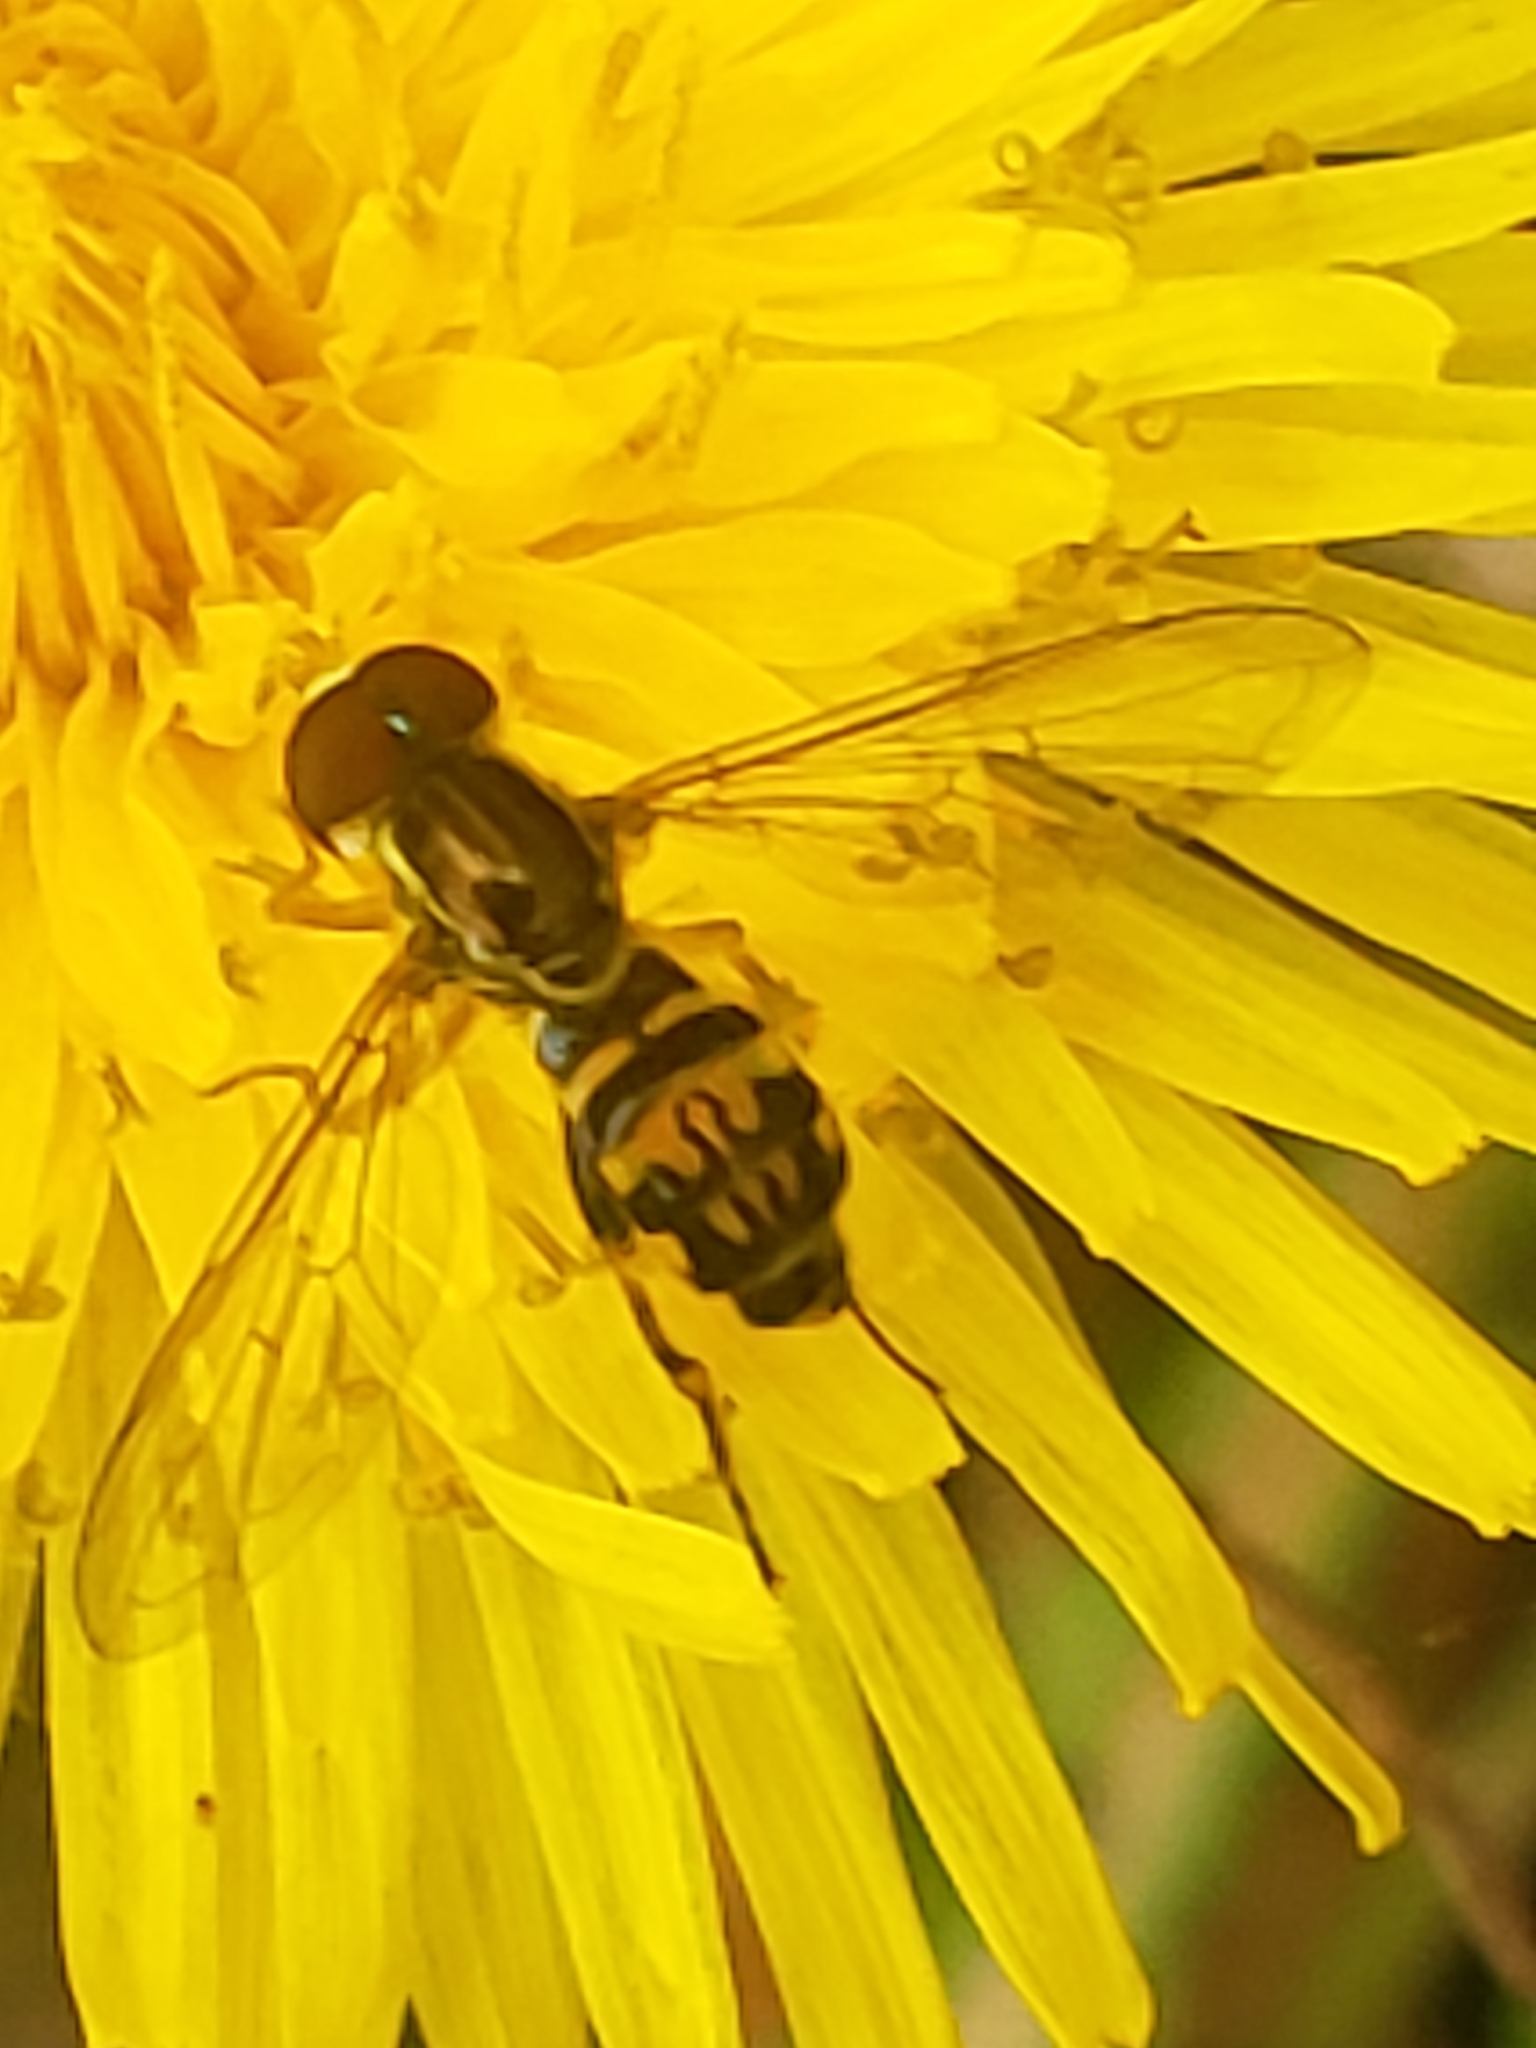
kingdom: Animalia
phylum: Arthropoda
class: Insecta
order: Diptera
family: Syrphidae
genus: Toxomerus
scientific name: Toxomerus geminatus
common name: Eastern calligrapher
